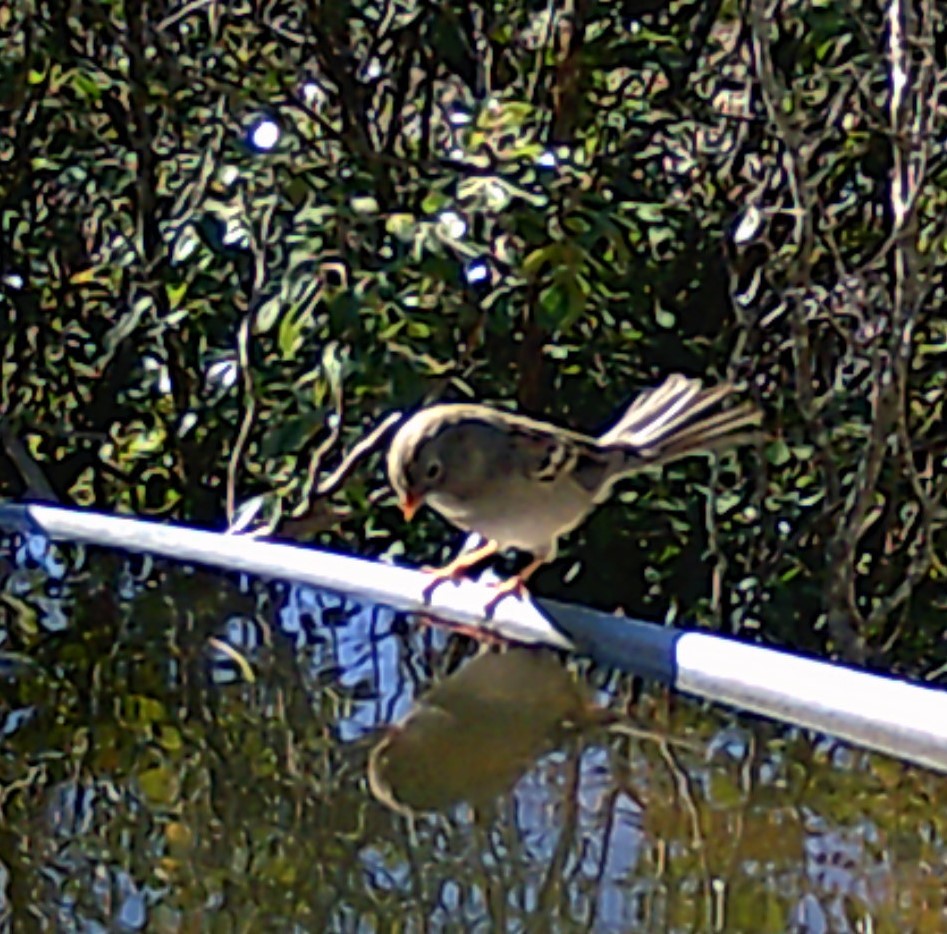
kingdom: Animalia
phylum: Chordata
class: Aves
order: Passeriformes
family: Passerellidae
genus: Spizella
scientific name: Spizella pusilla
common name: Field sparrow
